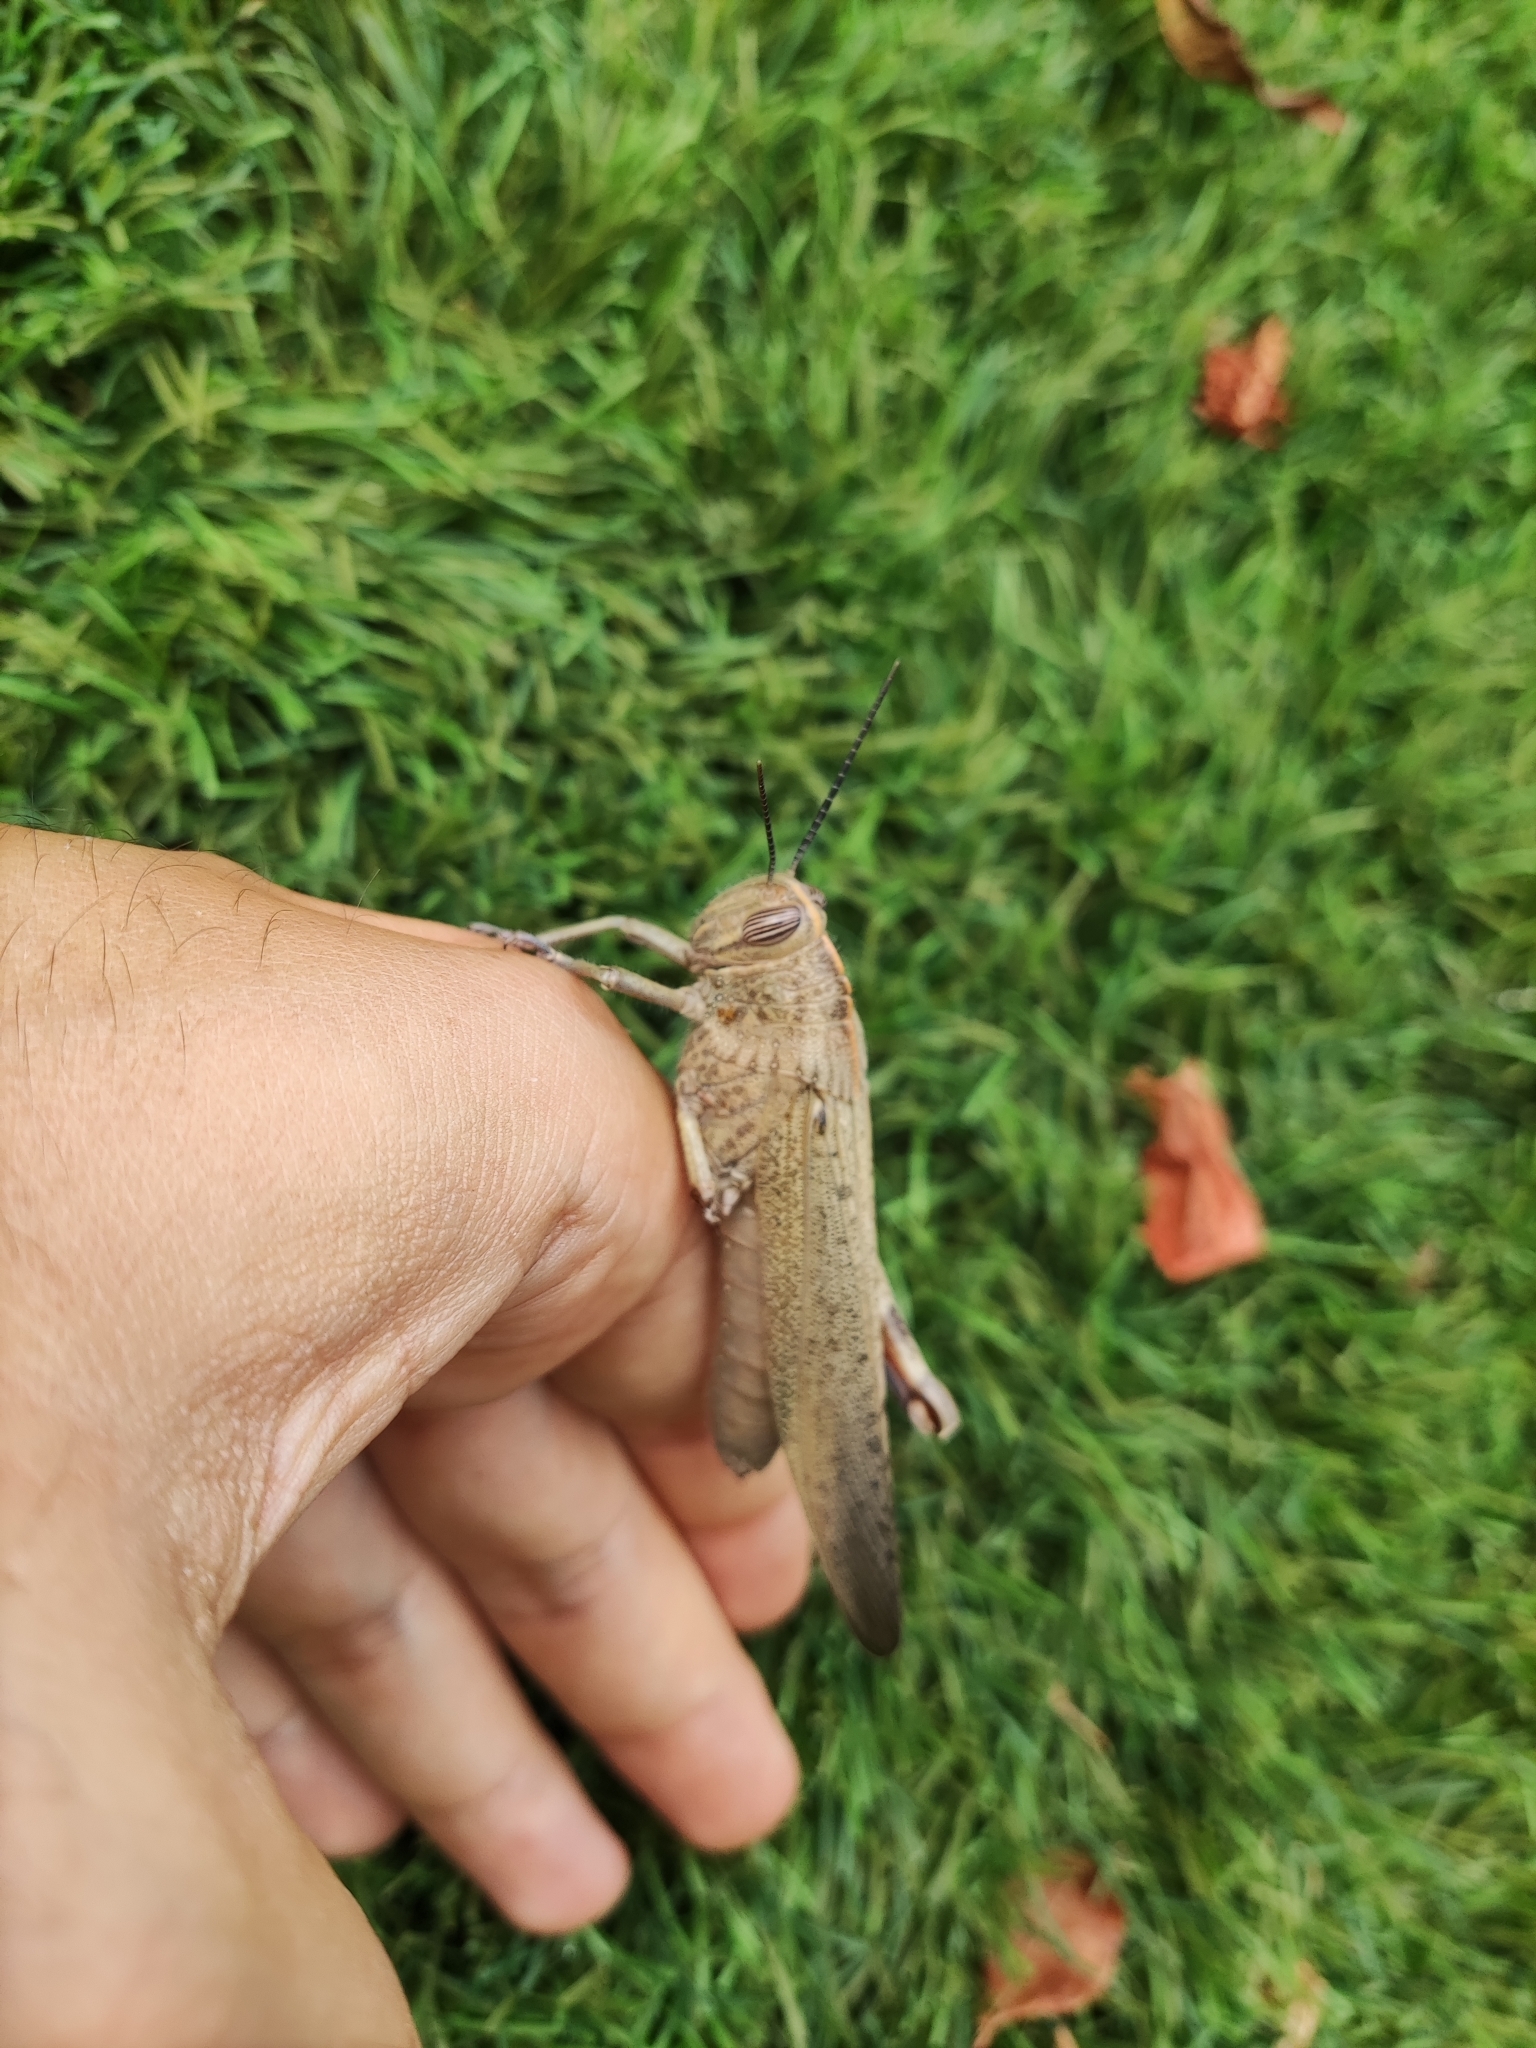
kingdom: Animalia
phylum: Arthropoda
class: Insecta
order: Orthoptera
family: Acrididae
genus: Anacridium
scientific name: Anacridium aegyptium
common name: Egyptian grasshopper
